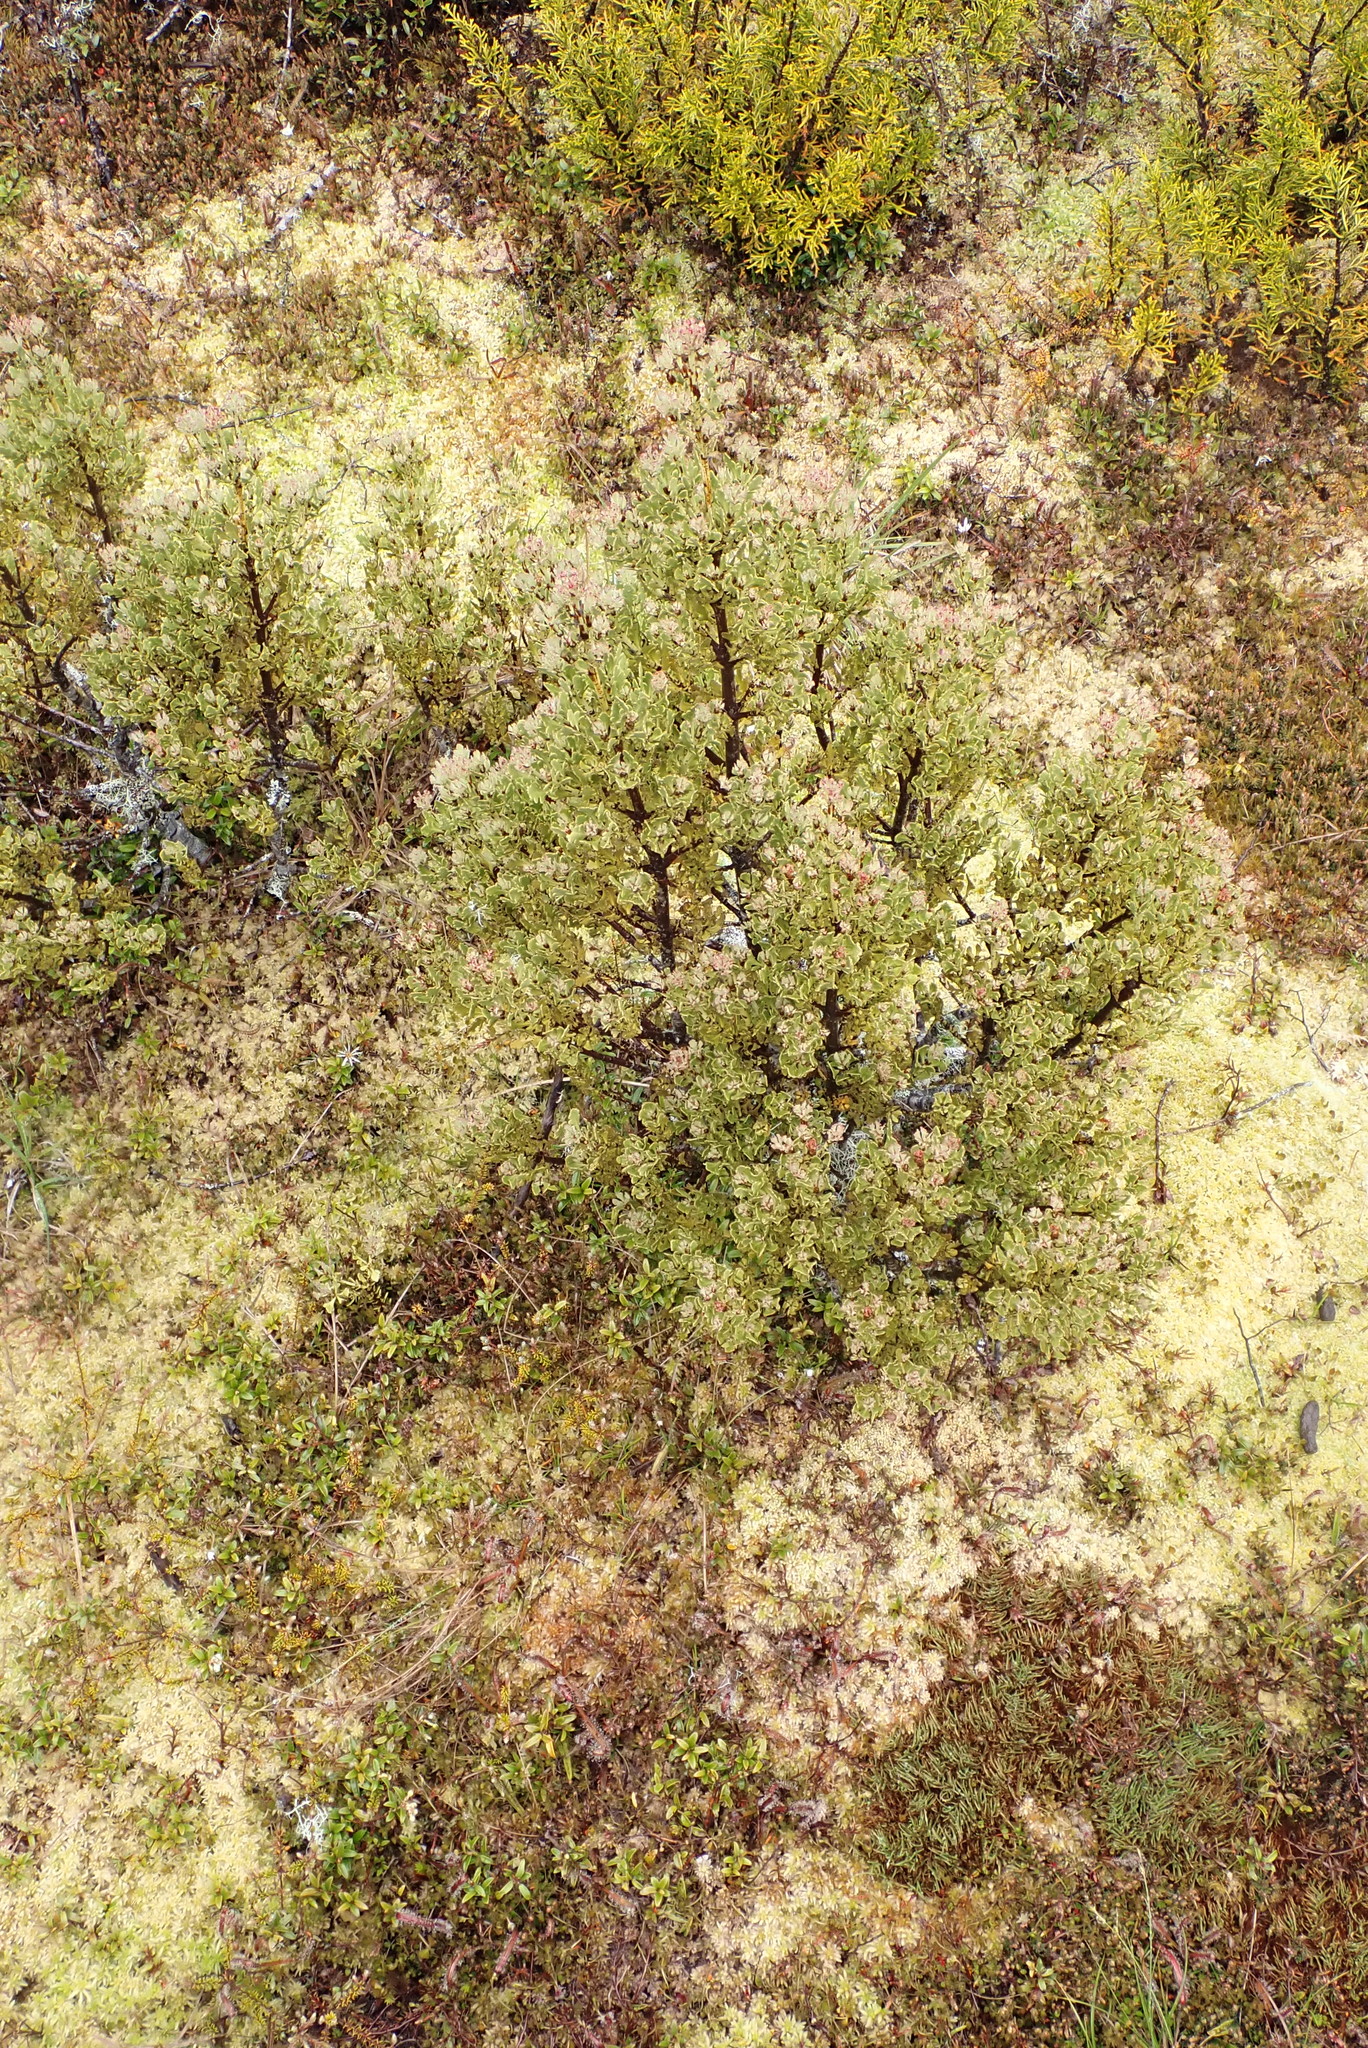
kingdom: Plantae
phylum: Tracheophyta
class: Pinopsida
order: Pinales
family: Phyllocladaceae
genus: Phyllocladus
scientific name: Phyllocladus trichomanoides
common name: Celery pine
